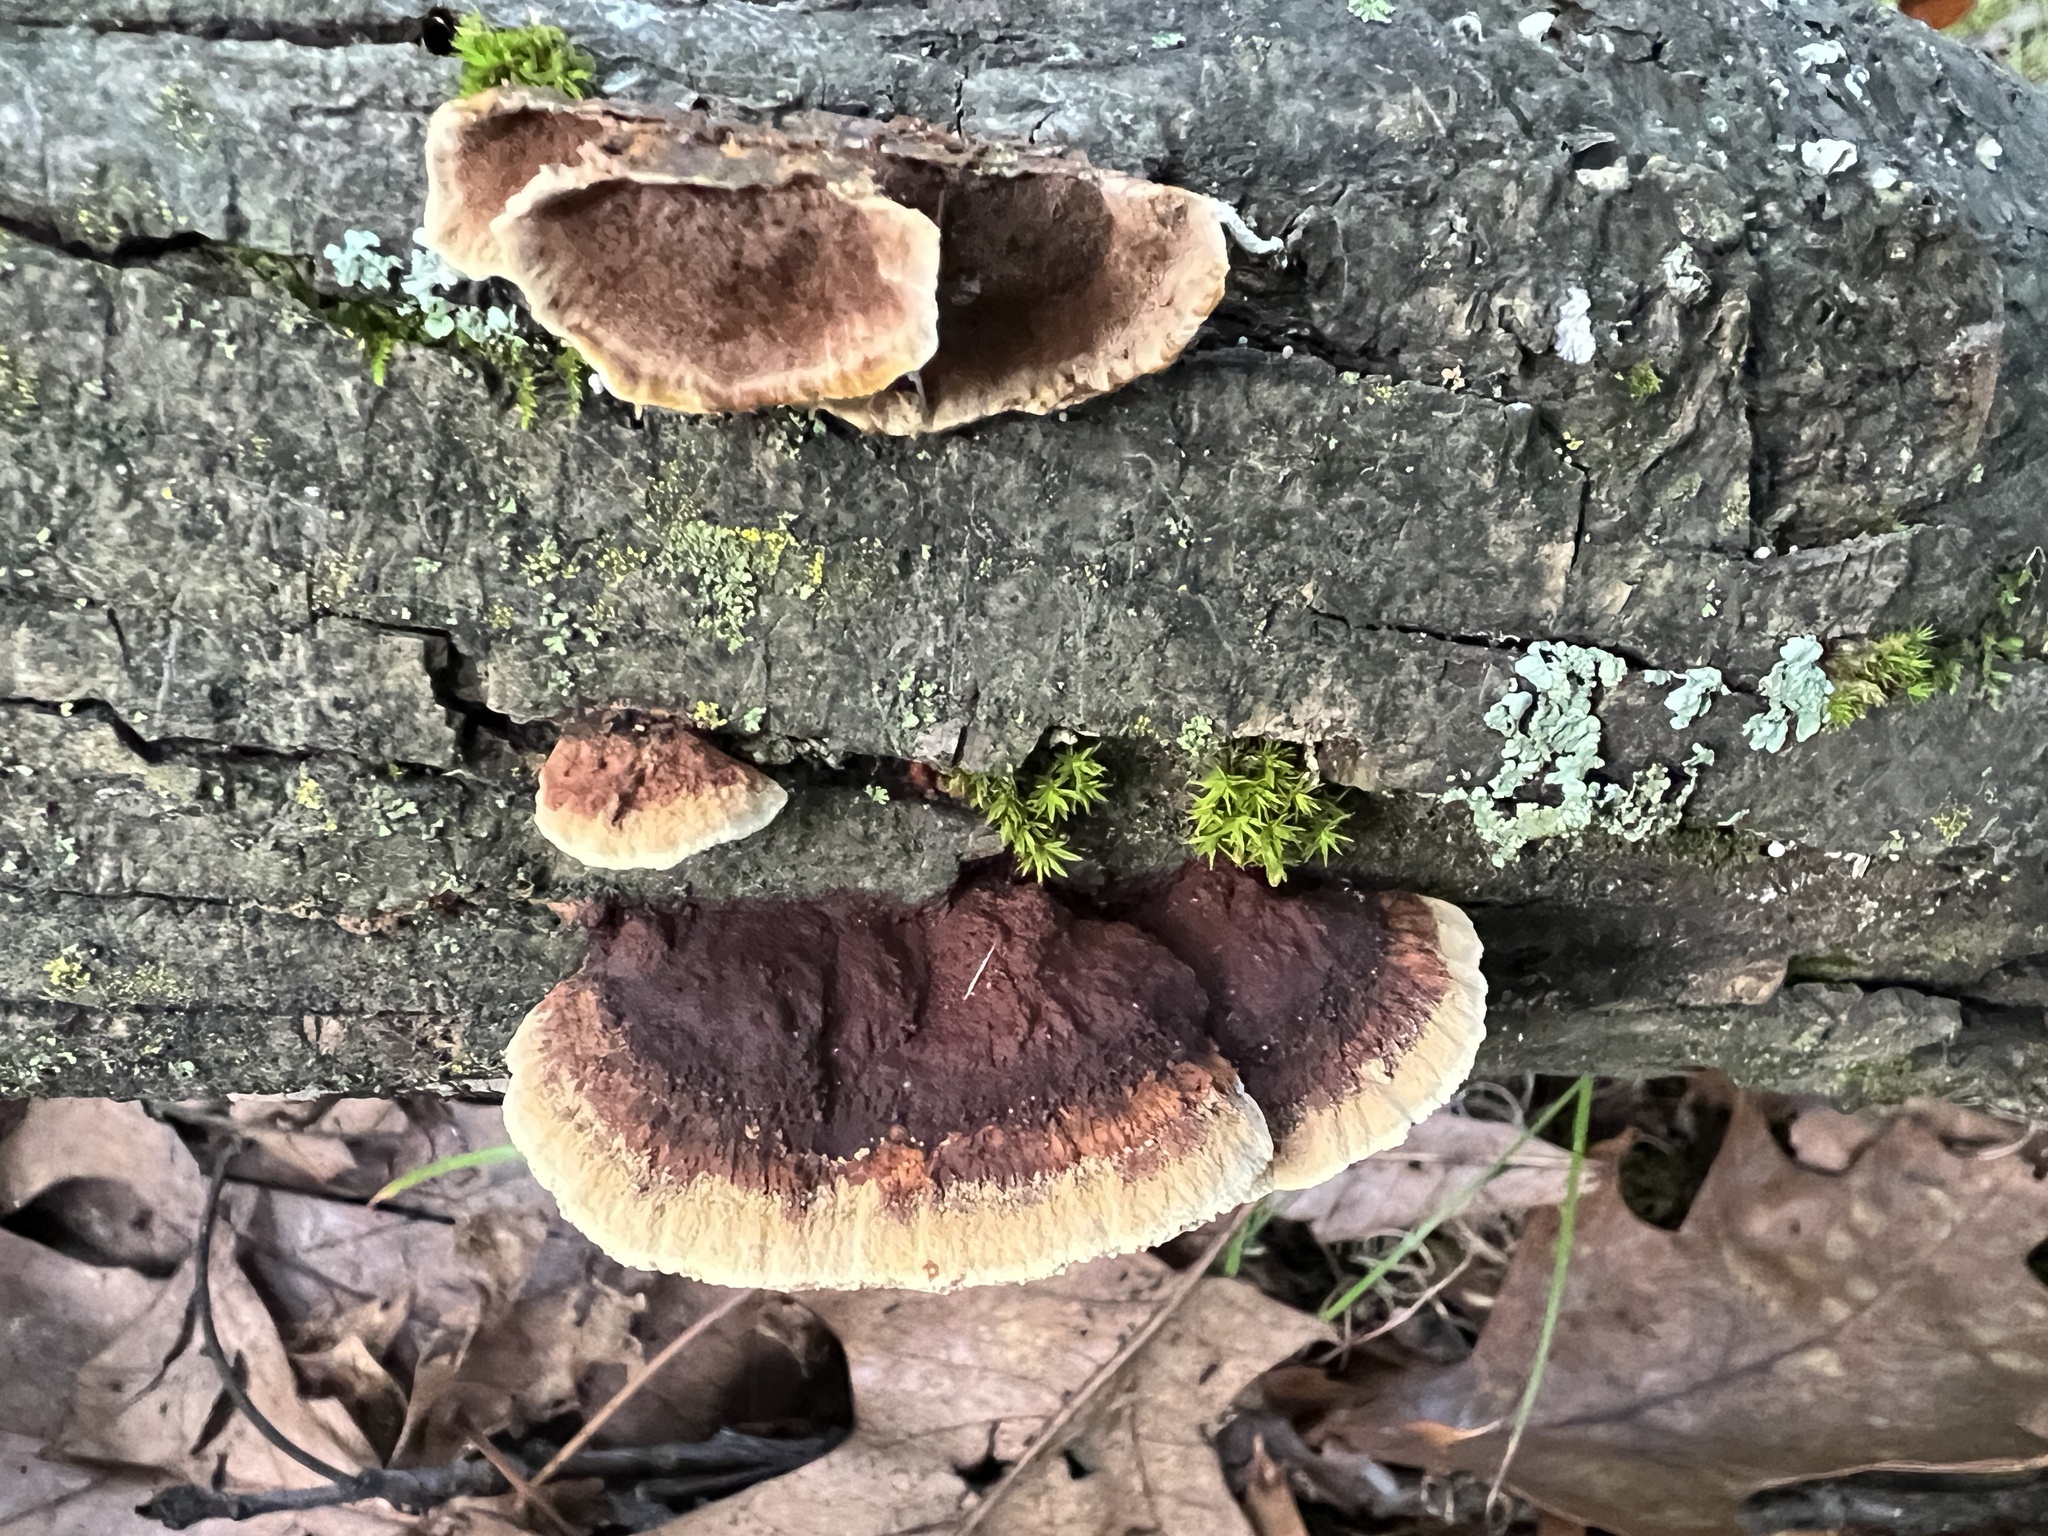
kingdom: Fungi
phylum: Basidiomycota
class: Agaricomycetes
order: Hymenochaetales
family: Hymenochaetaceae
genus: Phellinus
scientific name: Phellinus gilvus
